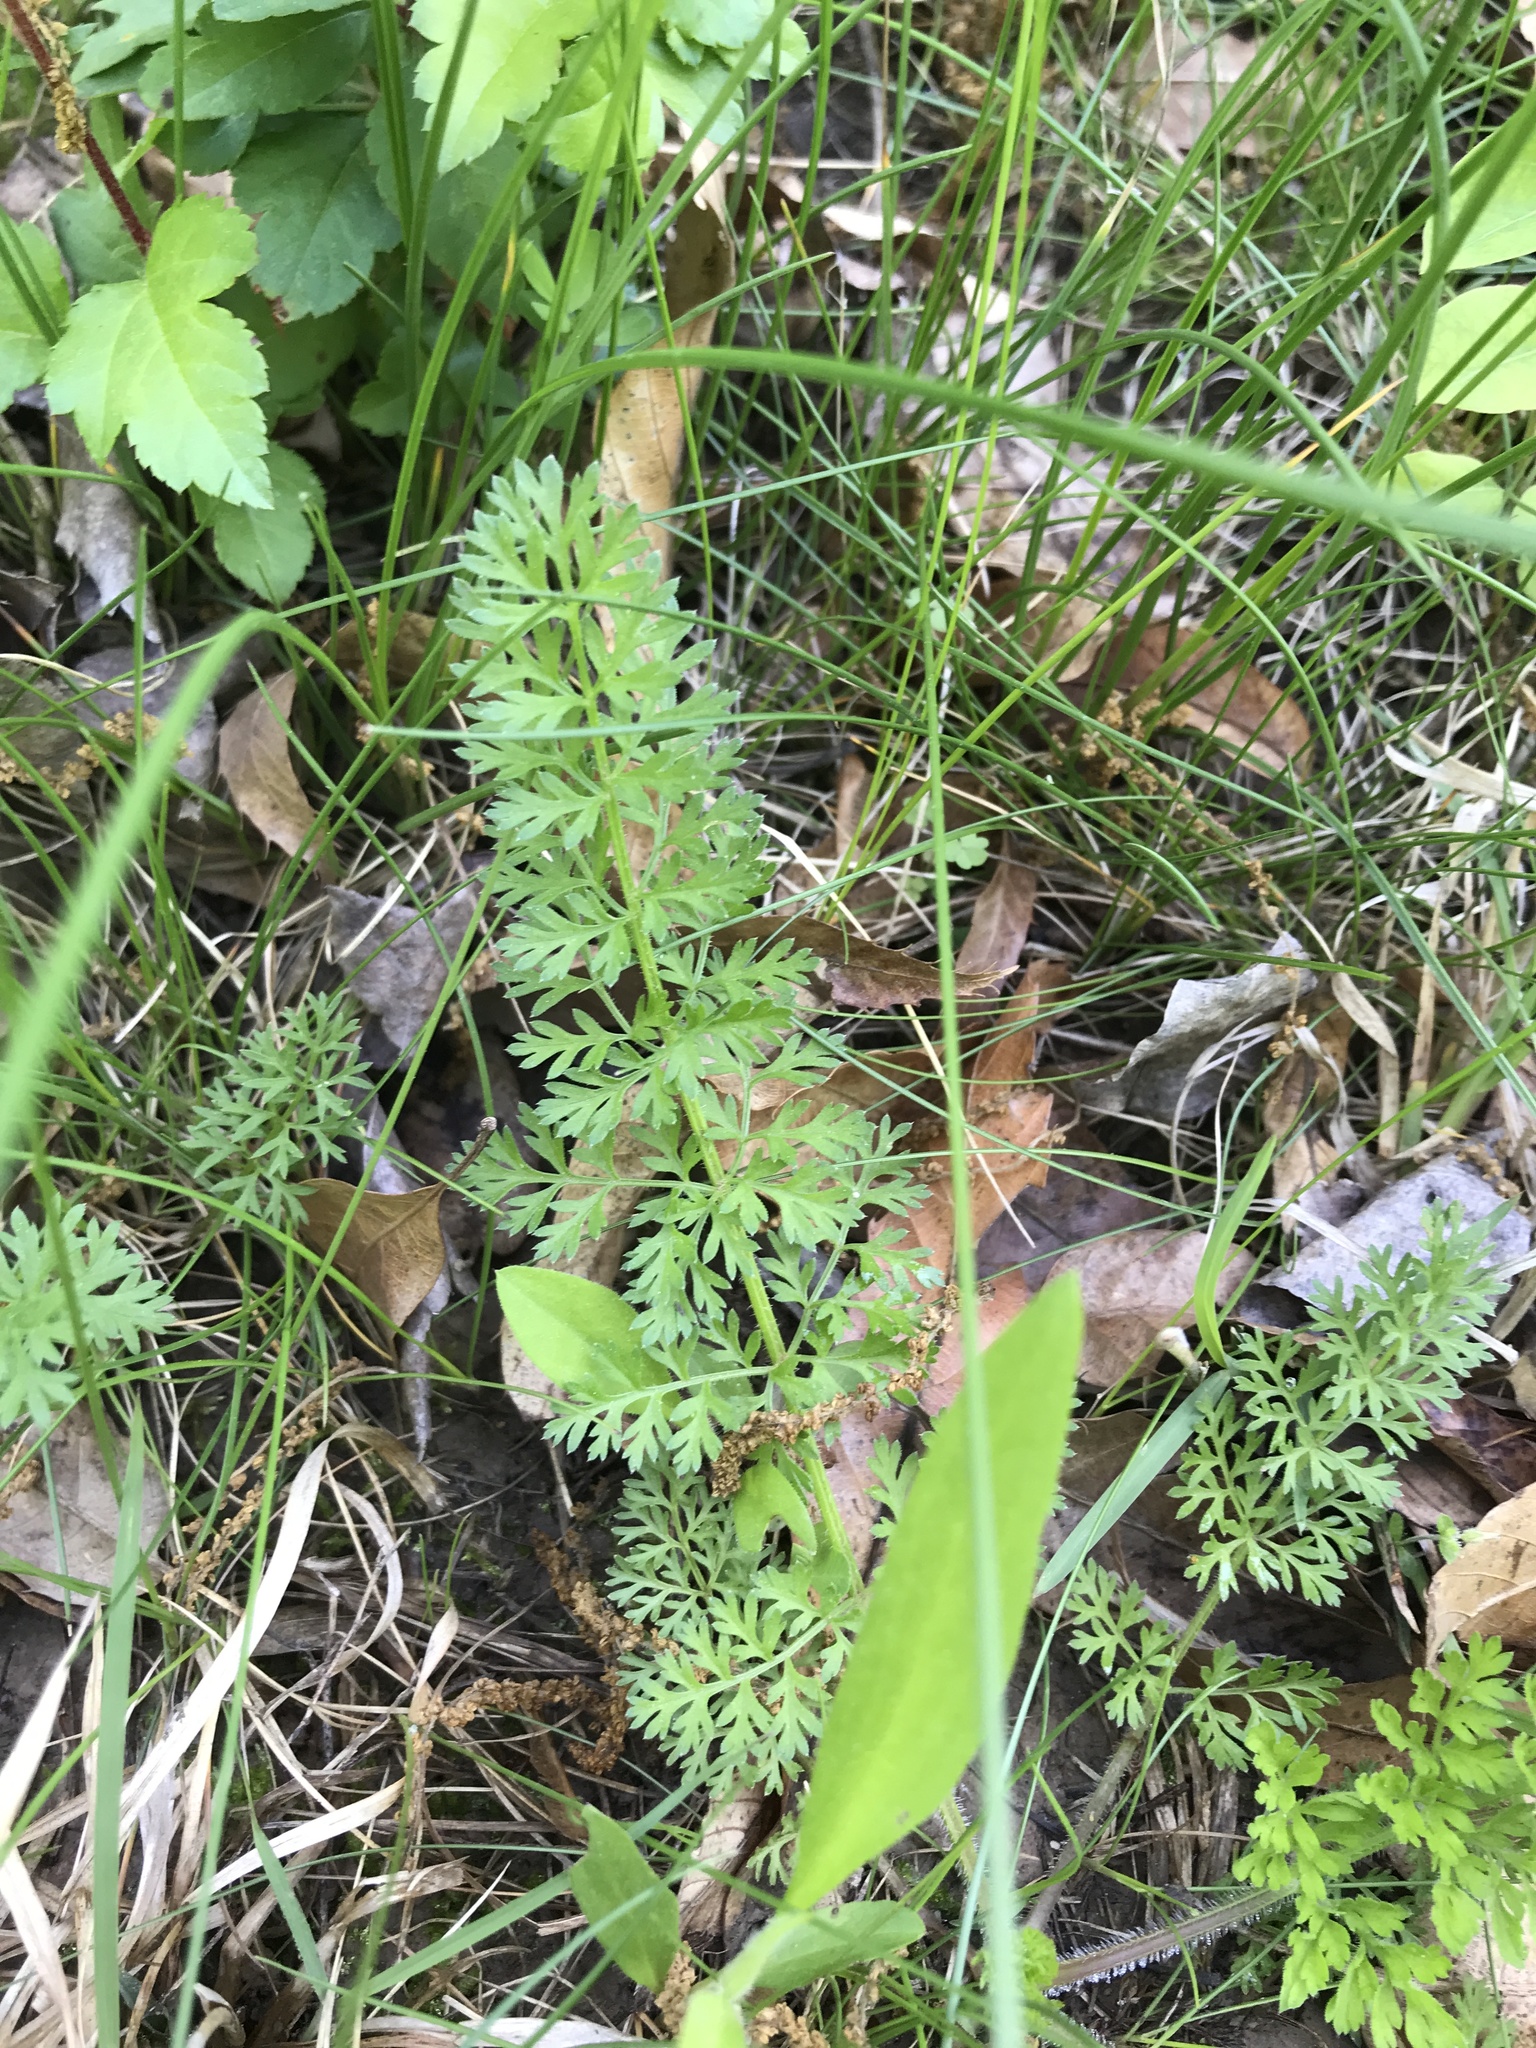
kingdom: Plantae
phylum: Tracheophyta
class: Magnoliopsida
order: Apiales
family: Apiaceae
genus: Daucus
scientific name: Daucus carota
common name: Wild carrot
